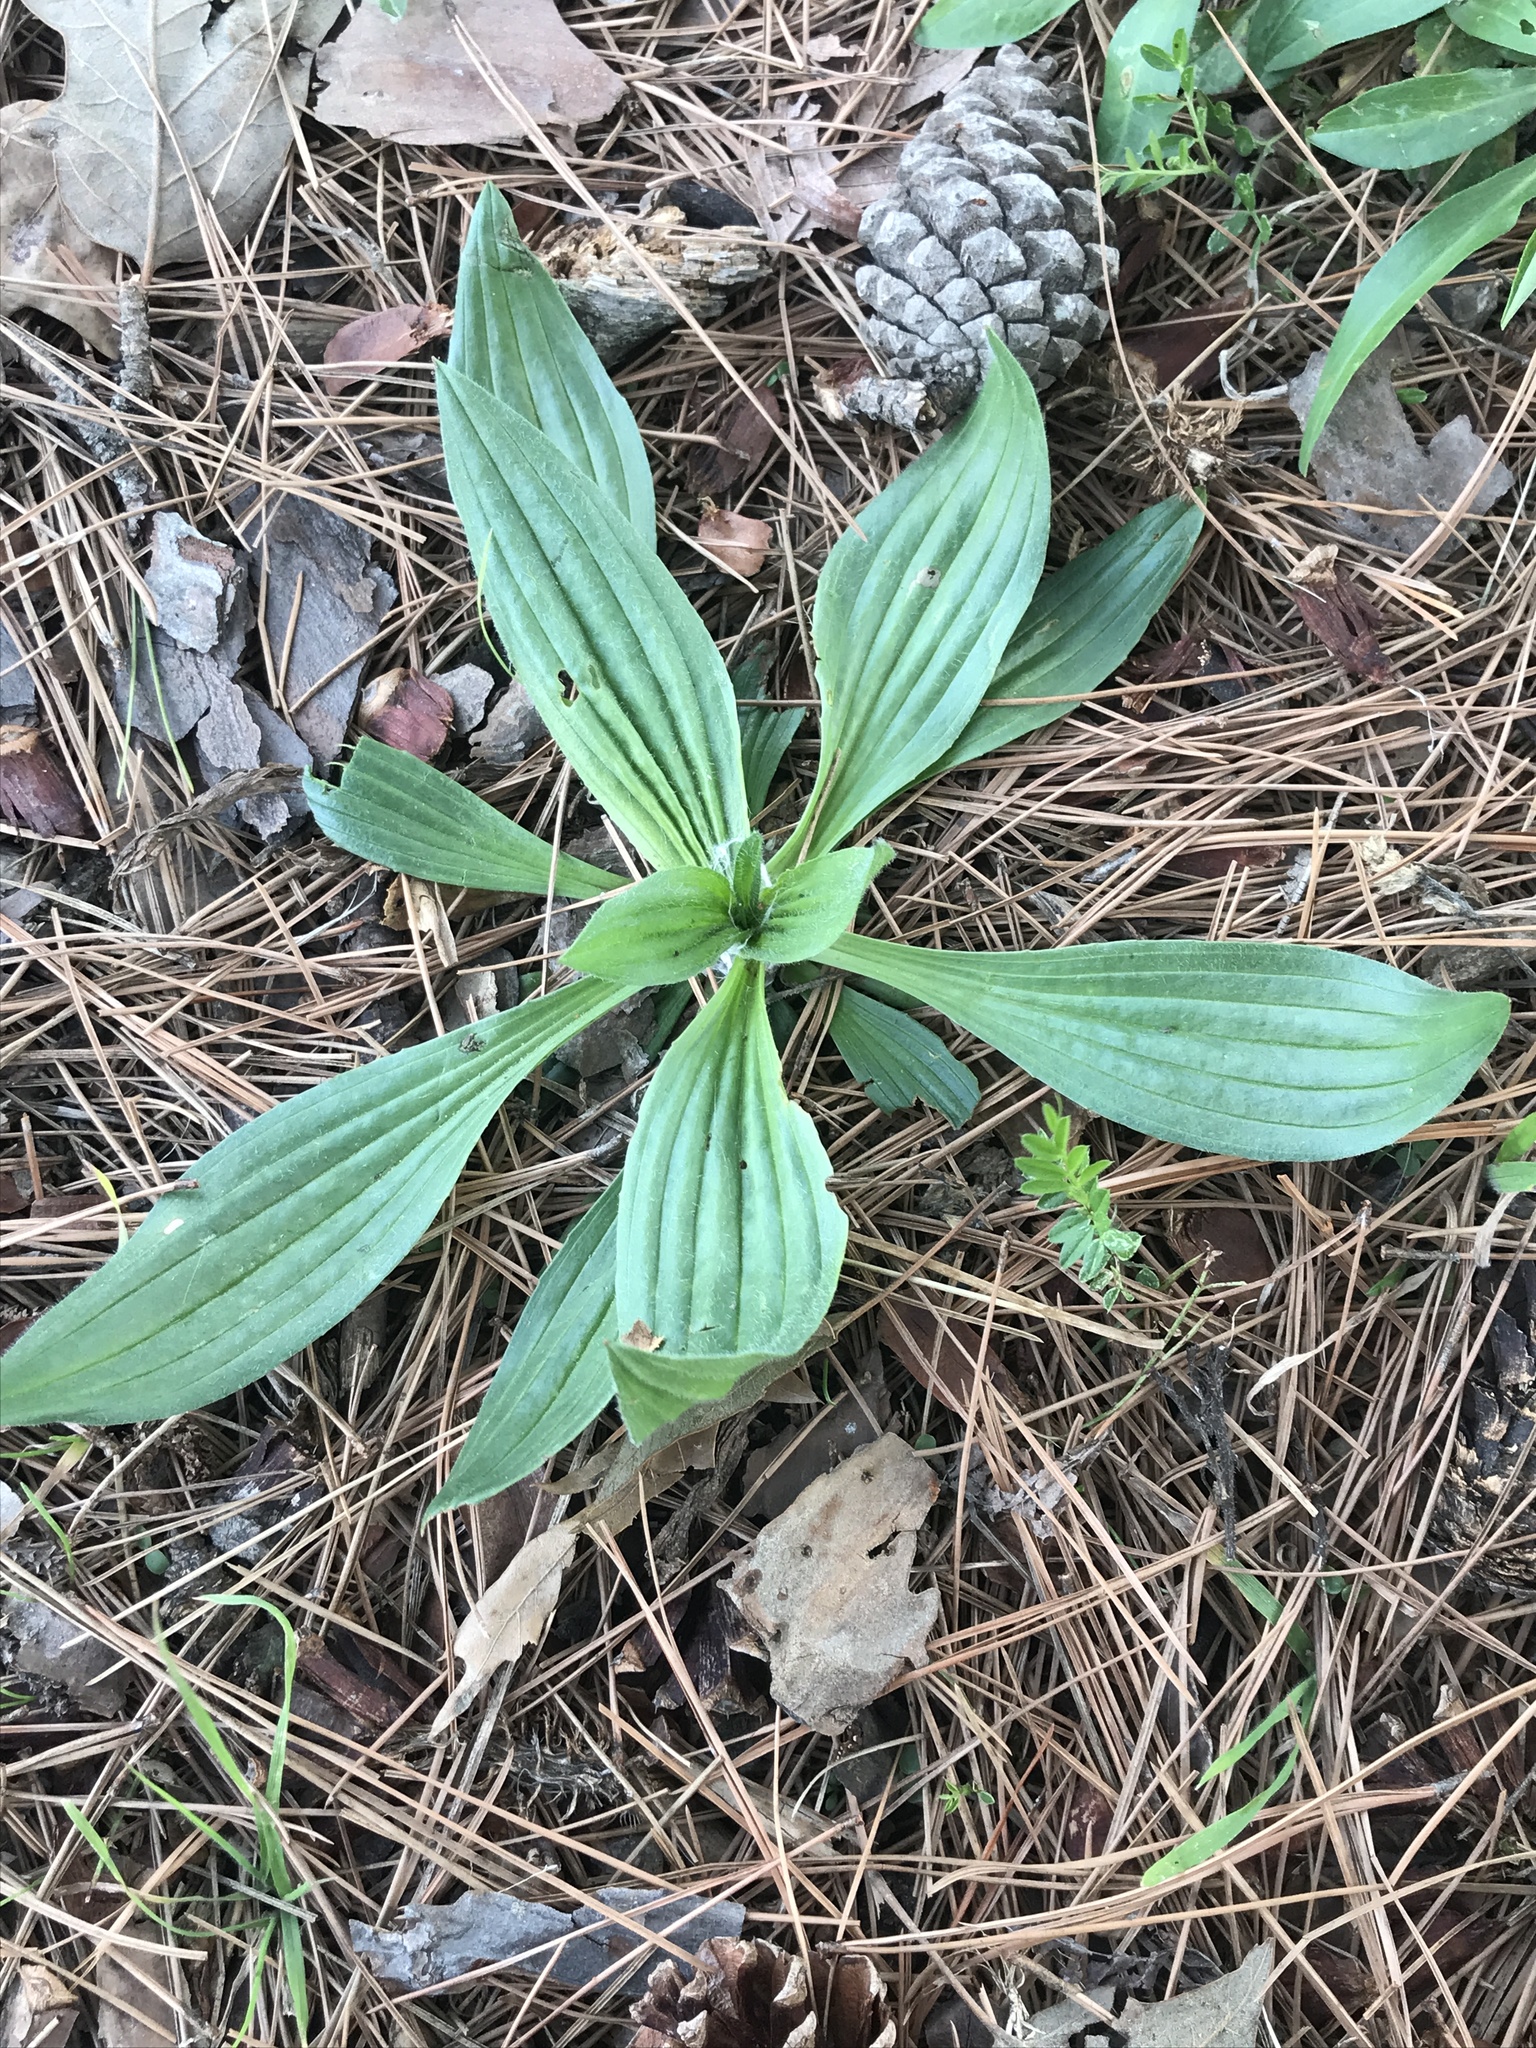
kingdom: Plantae
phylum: Tracheophyta
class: Magnoliopsida
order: Lamiales
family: Plantaginaceae
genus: Plantago
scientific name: Plantago lanceolata
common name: Ribwort plantain
